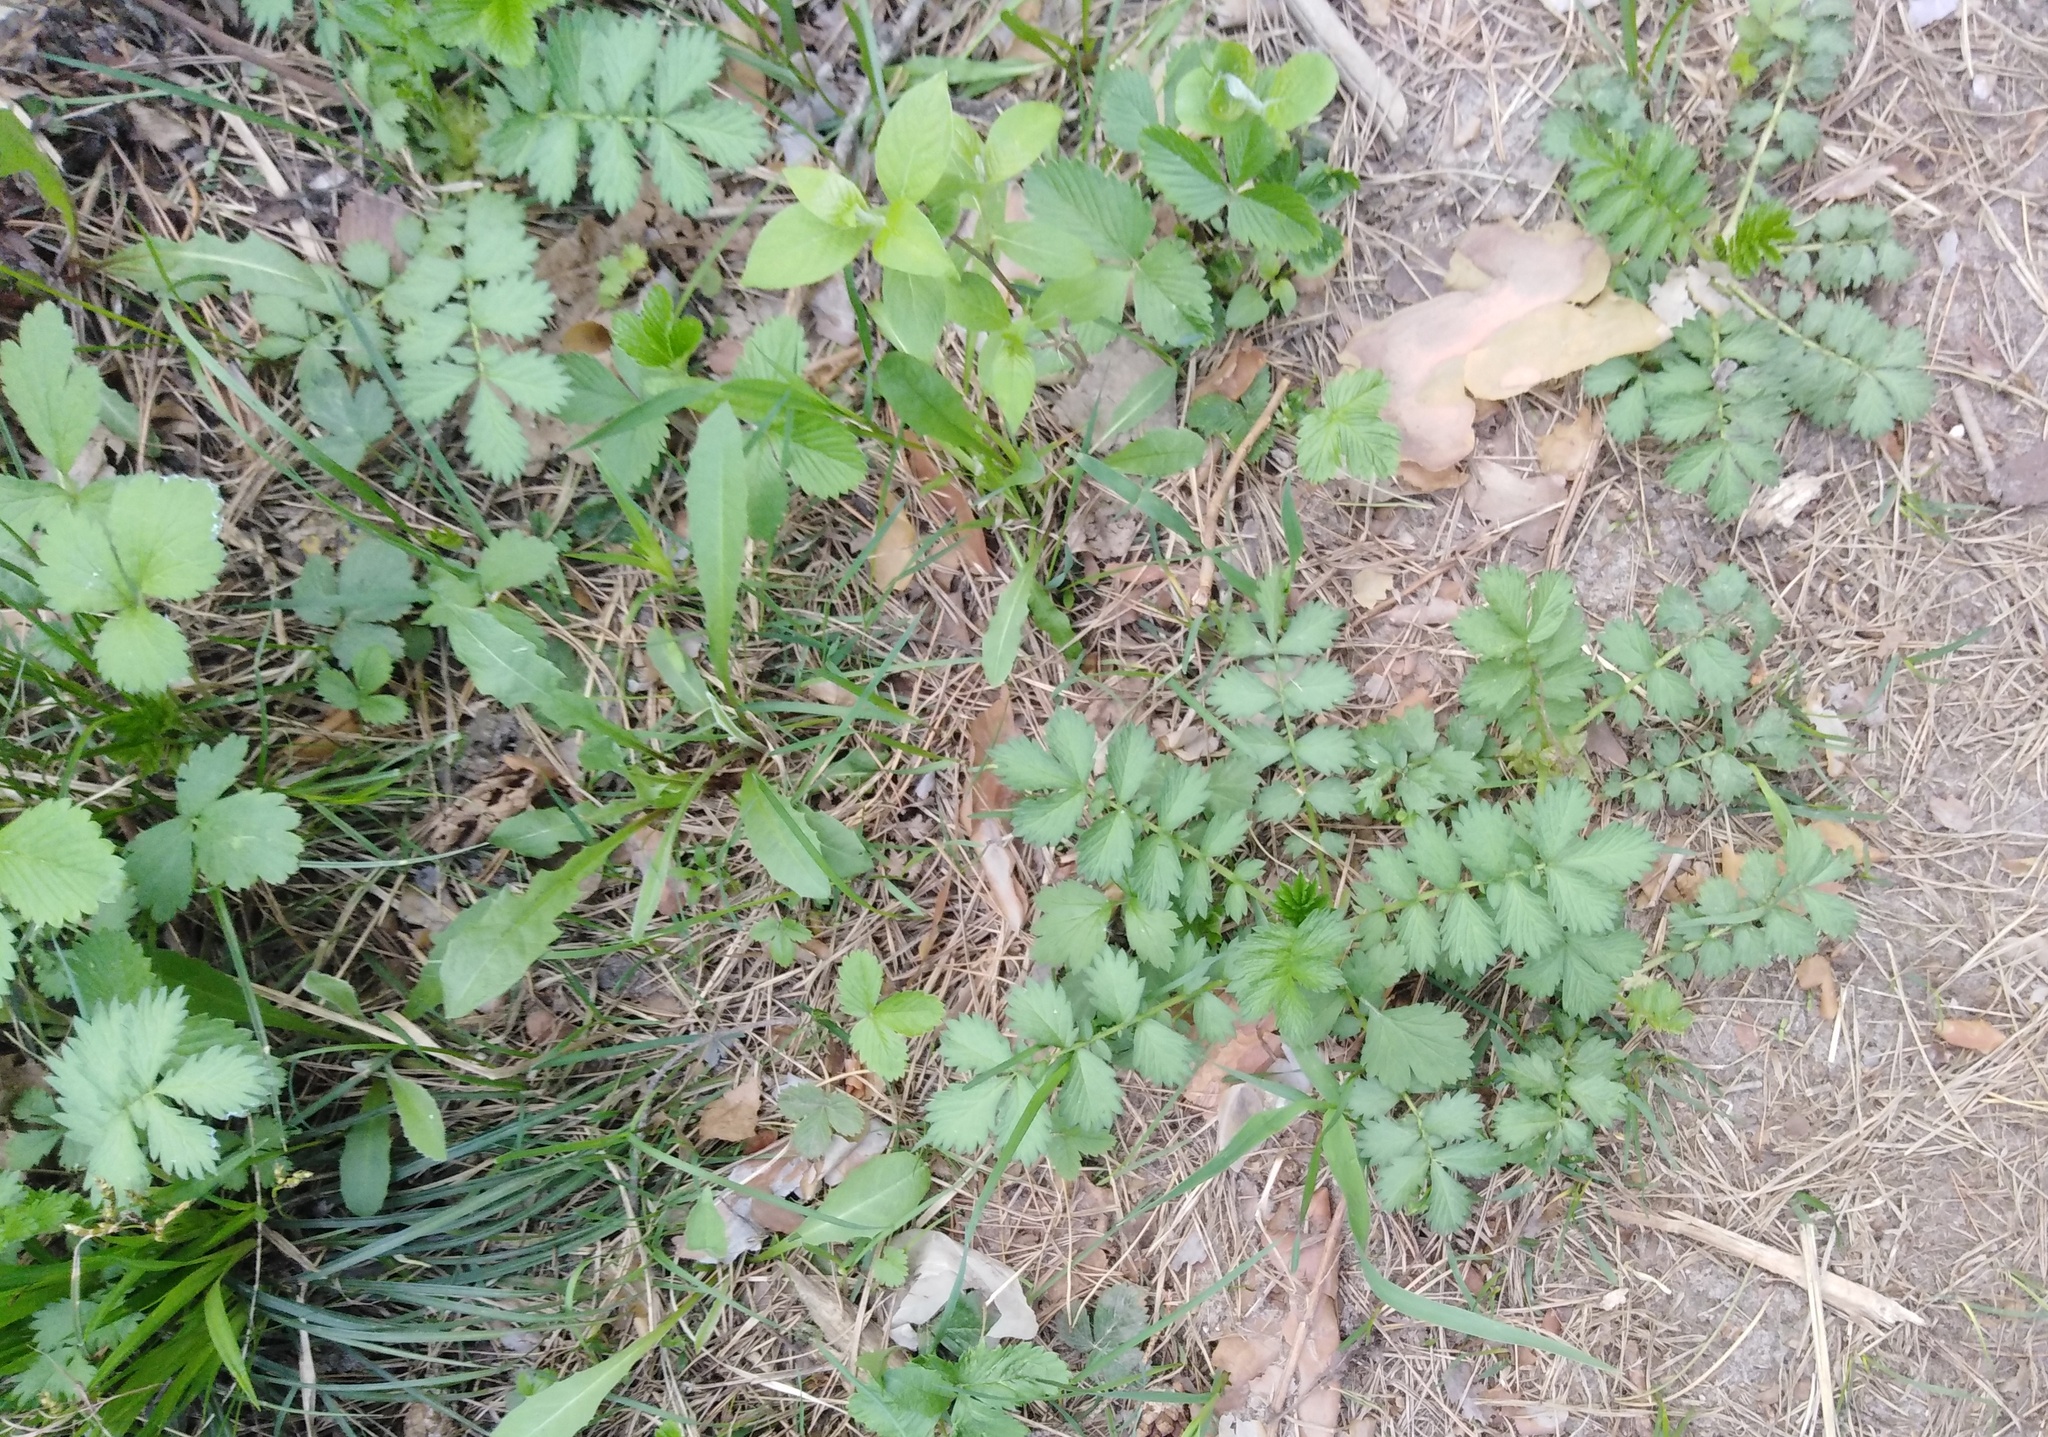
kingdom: Plantae
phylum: Tracheophyta
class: Magnoliopsida
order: Rosales
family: Rosaceae
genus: Agrimonia
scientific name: Agrimonia pilosa
